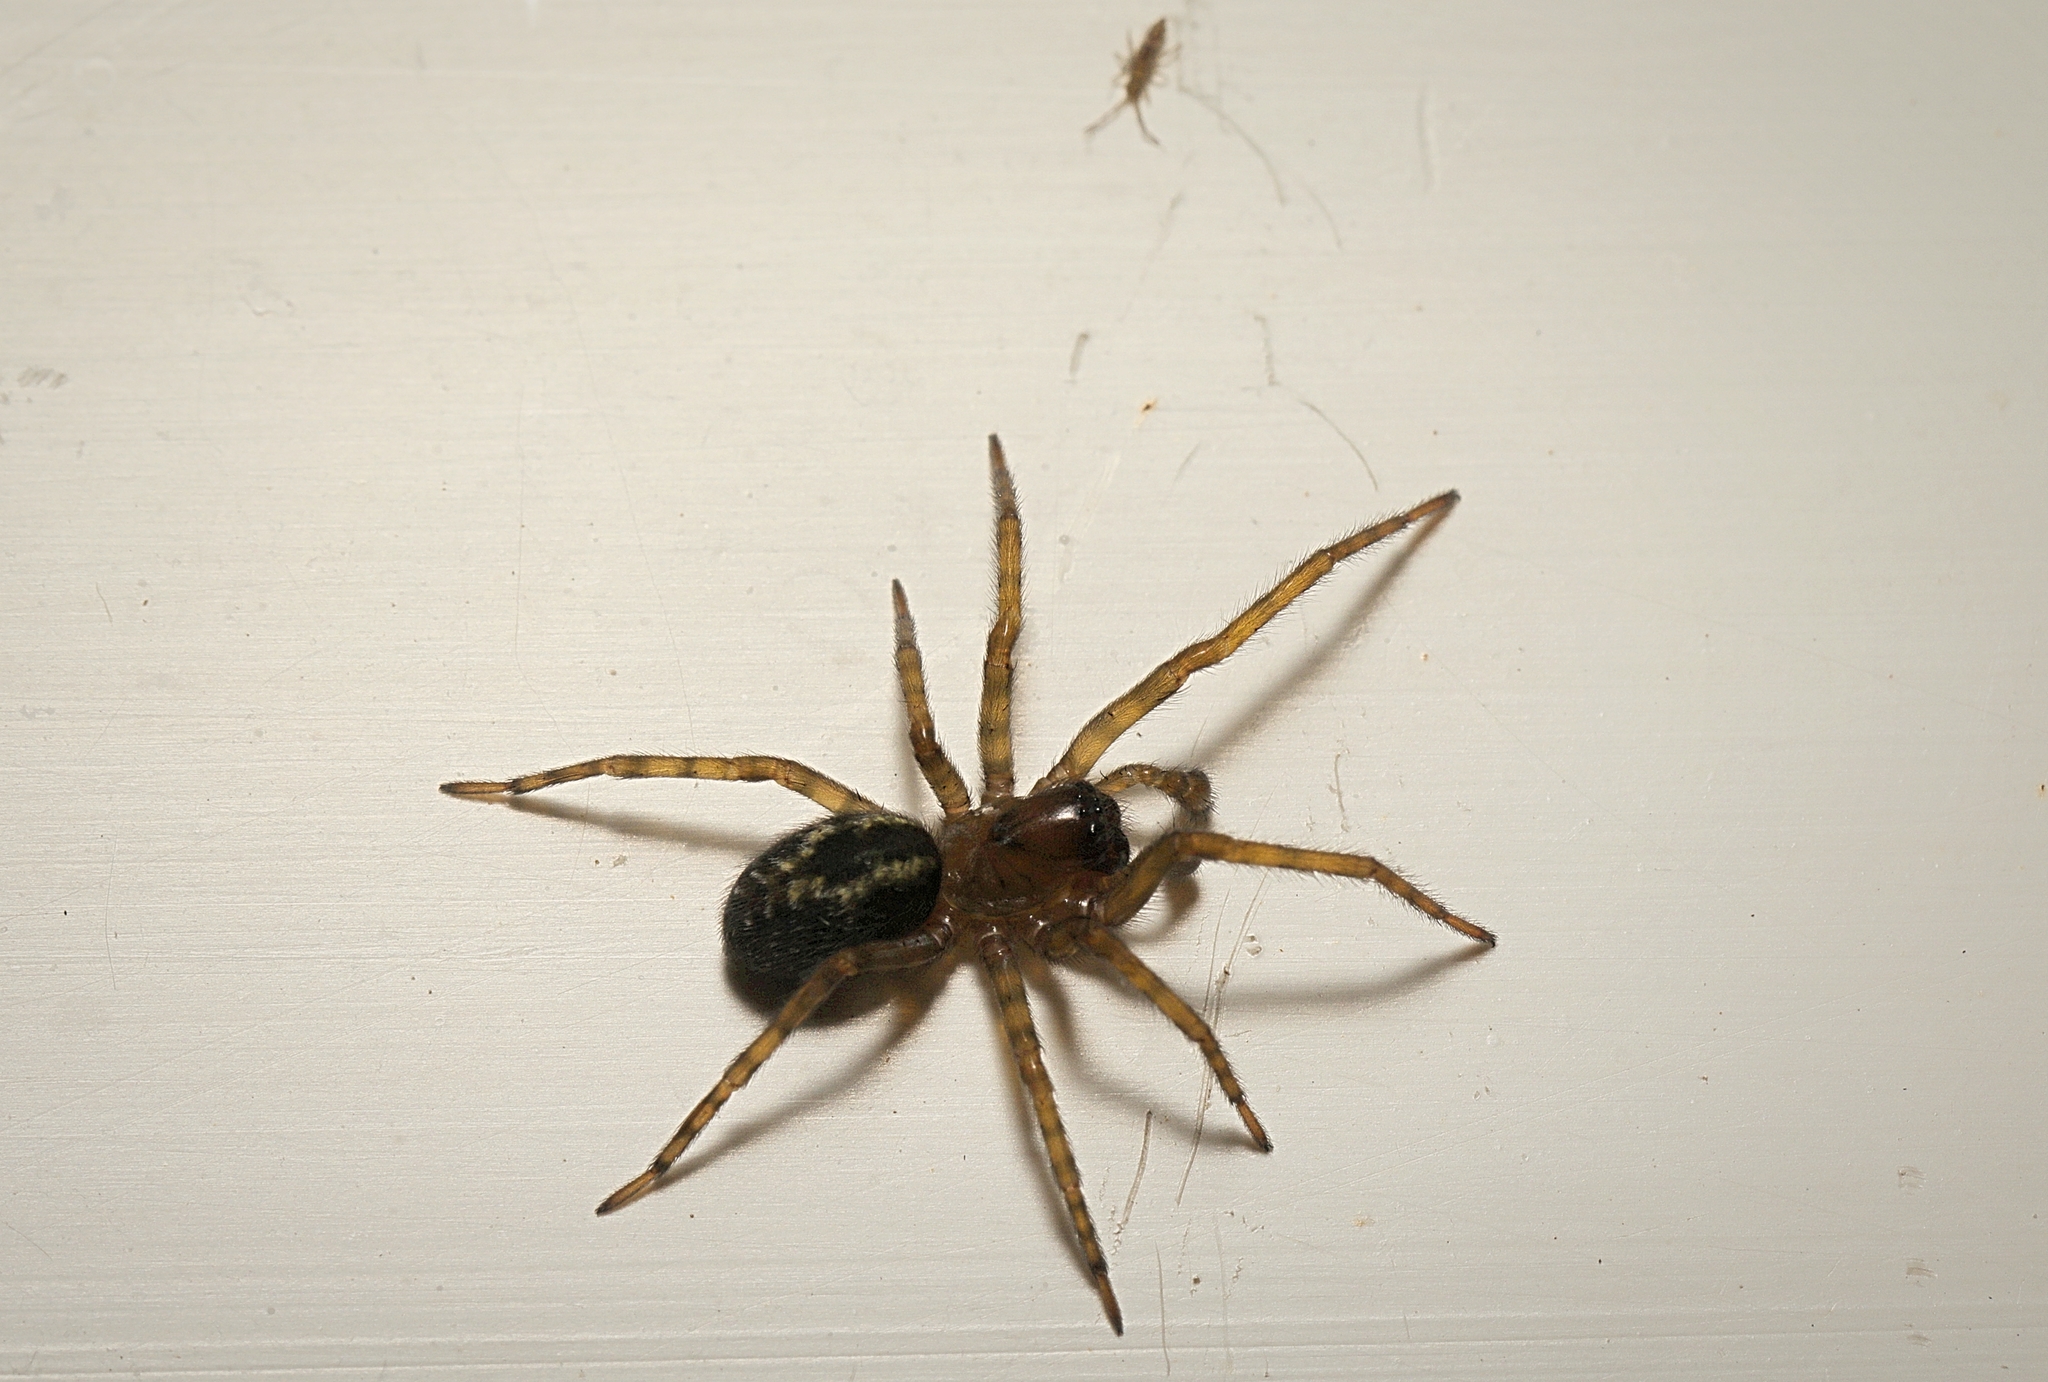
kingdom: Animalia
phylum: Arthropoda
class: Arachnida
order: Araneae
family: Amaurobiidae
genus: Amaurobius
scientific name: Amaurobius similis
